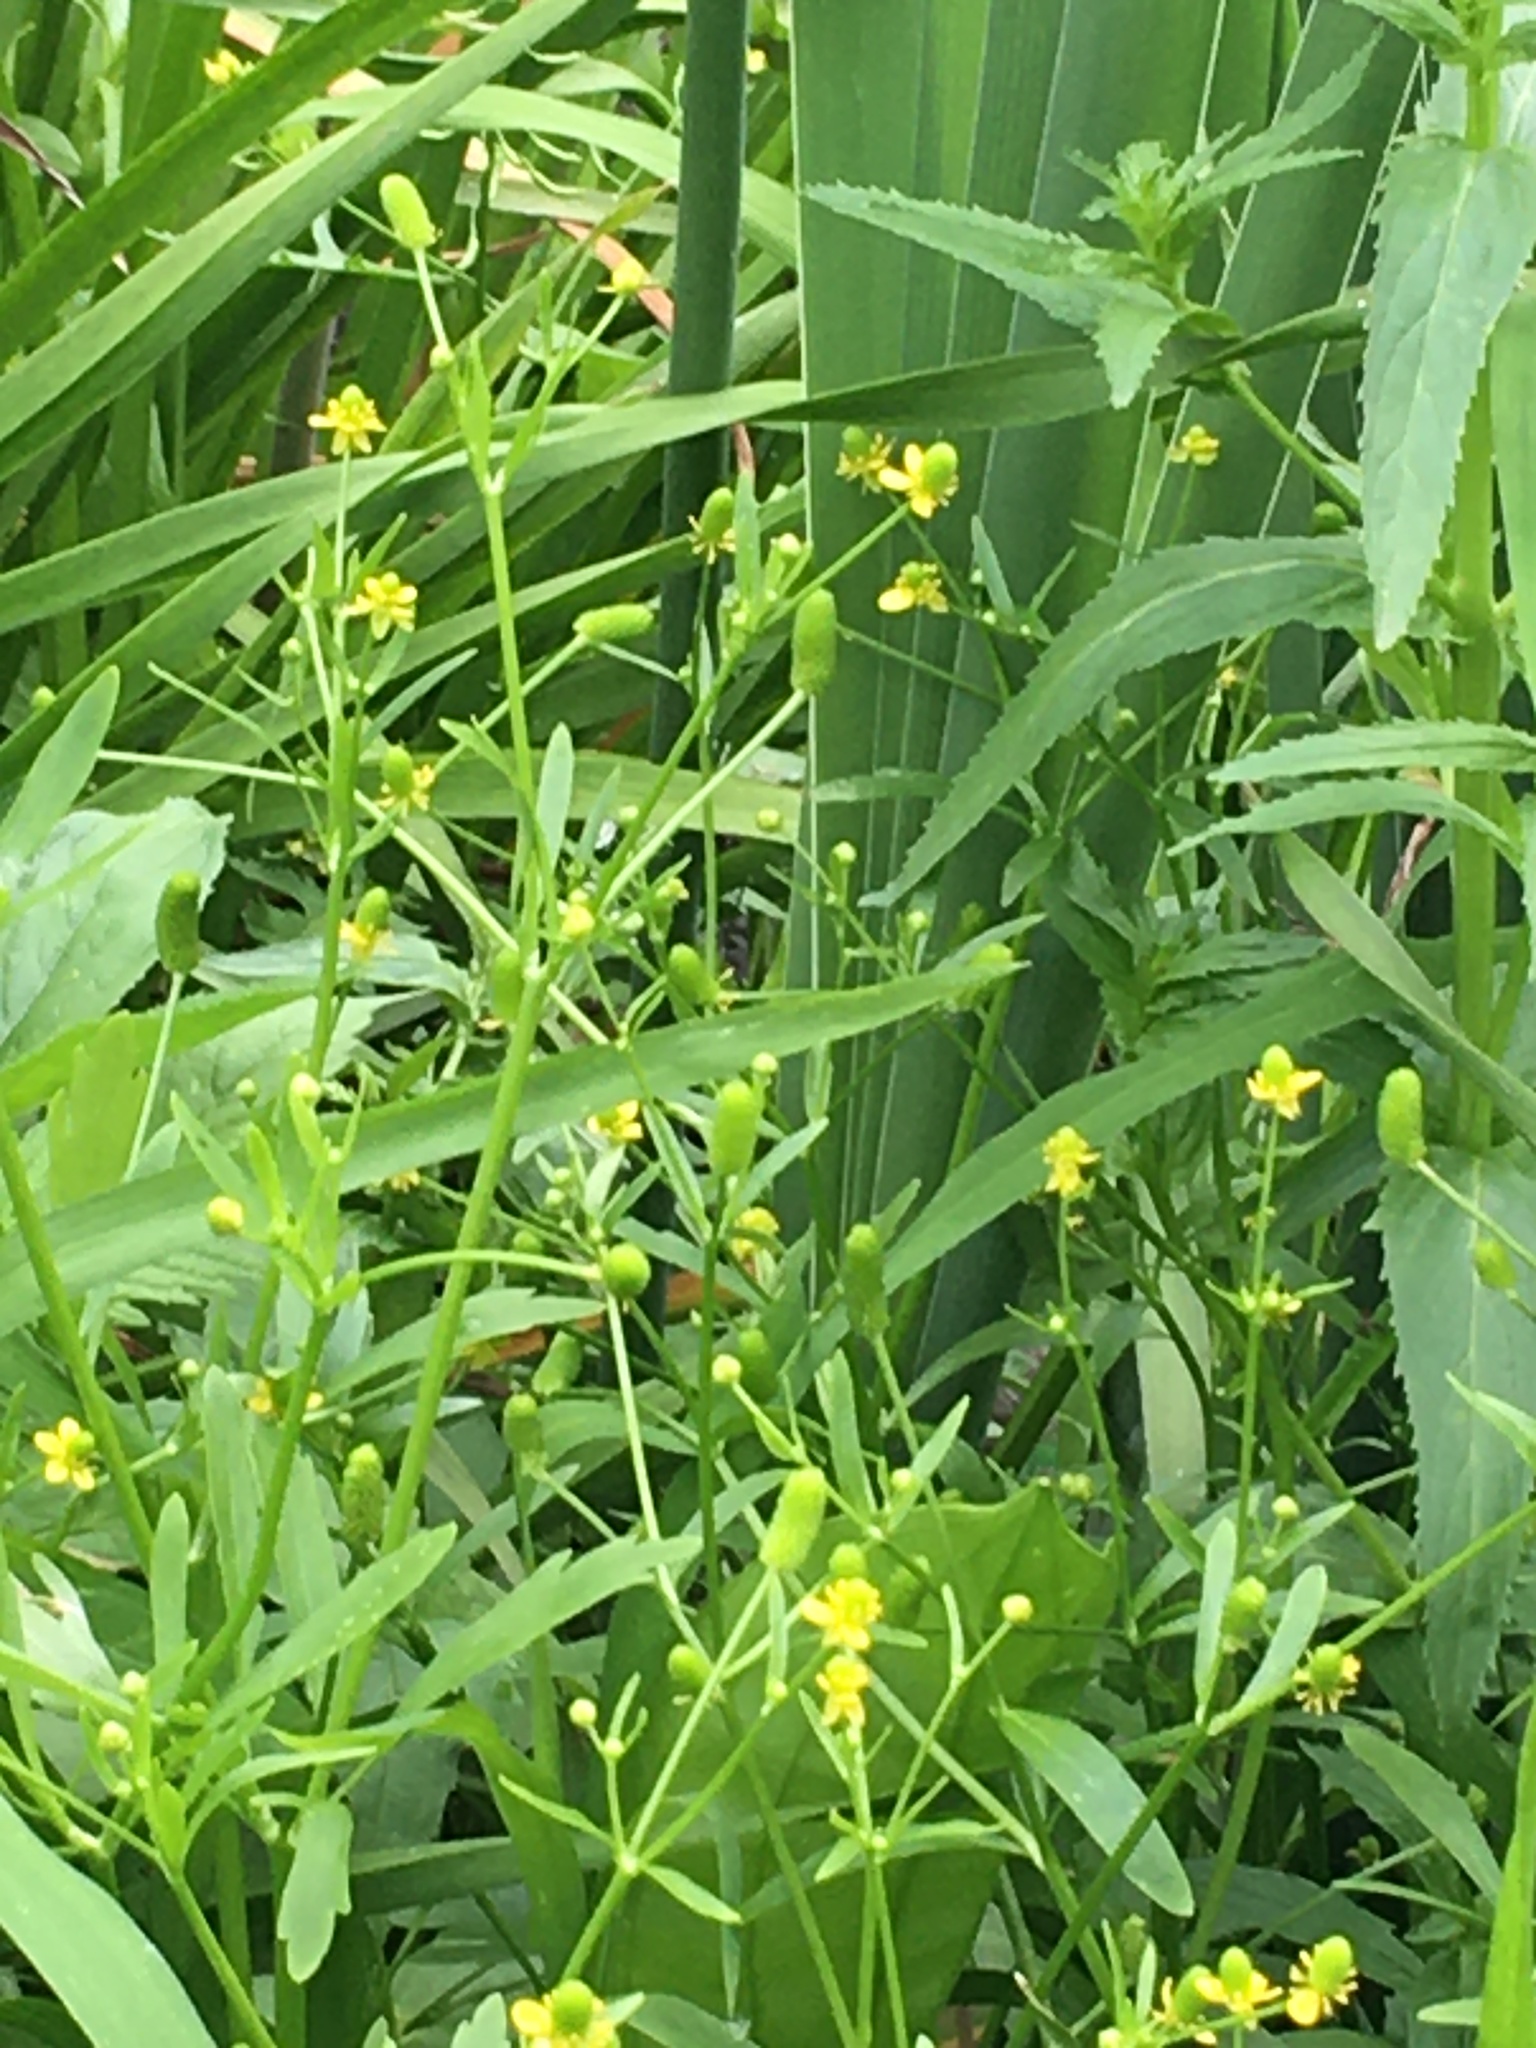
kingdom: Plantae
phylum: Tracheophyta
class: Magnoliopsida
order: Ranunculales
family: Ranunculaceae
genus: Ranunculus
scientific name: Ranunculus sceleratus
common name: Celery-leaved buttercup
